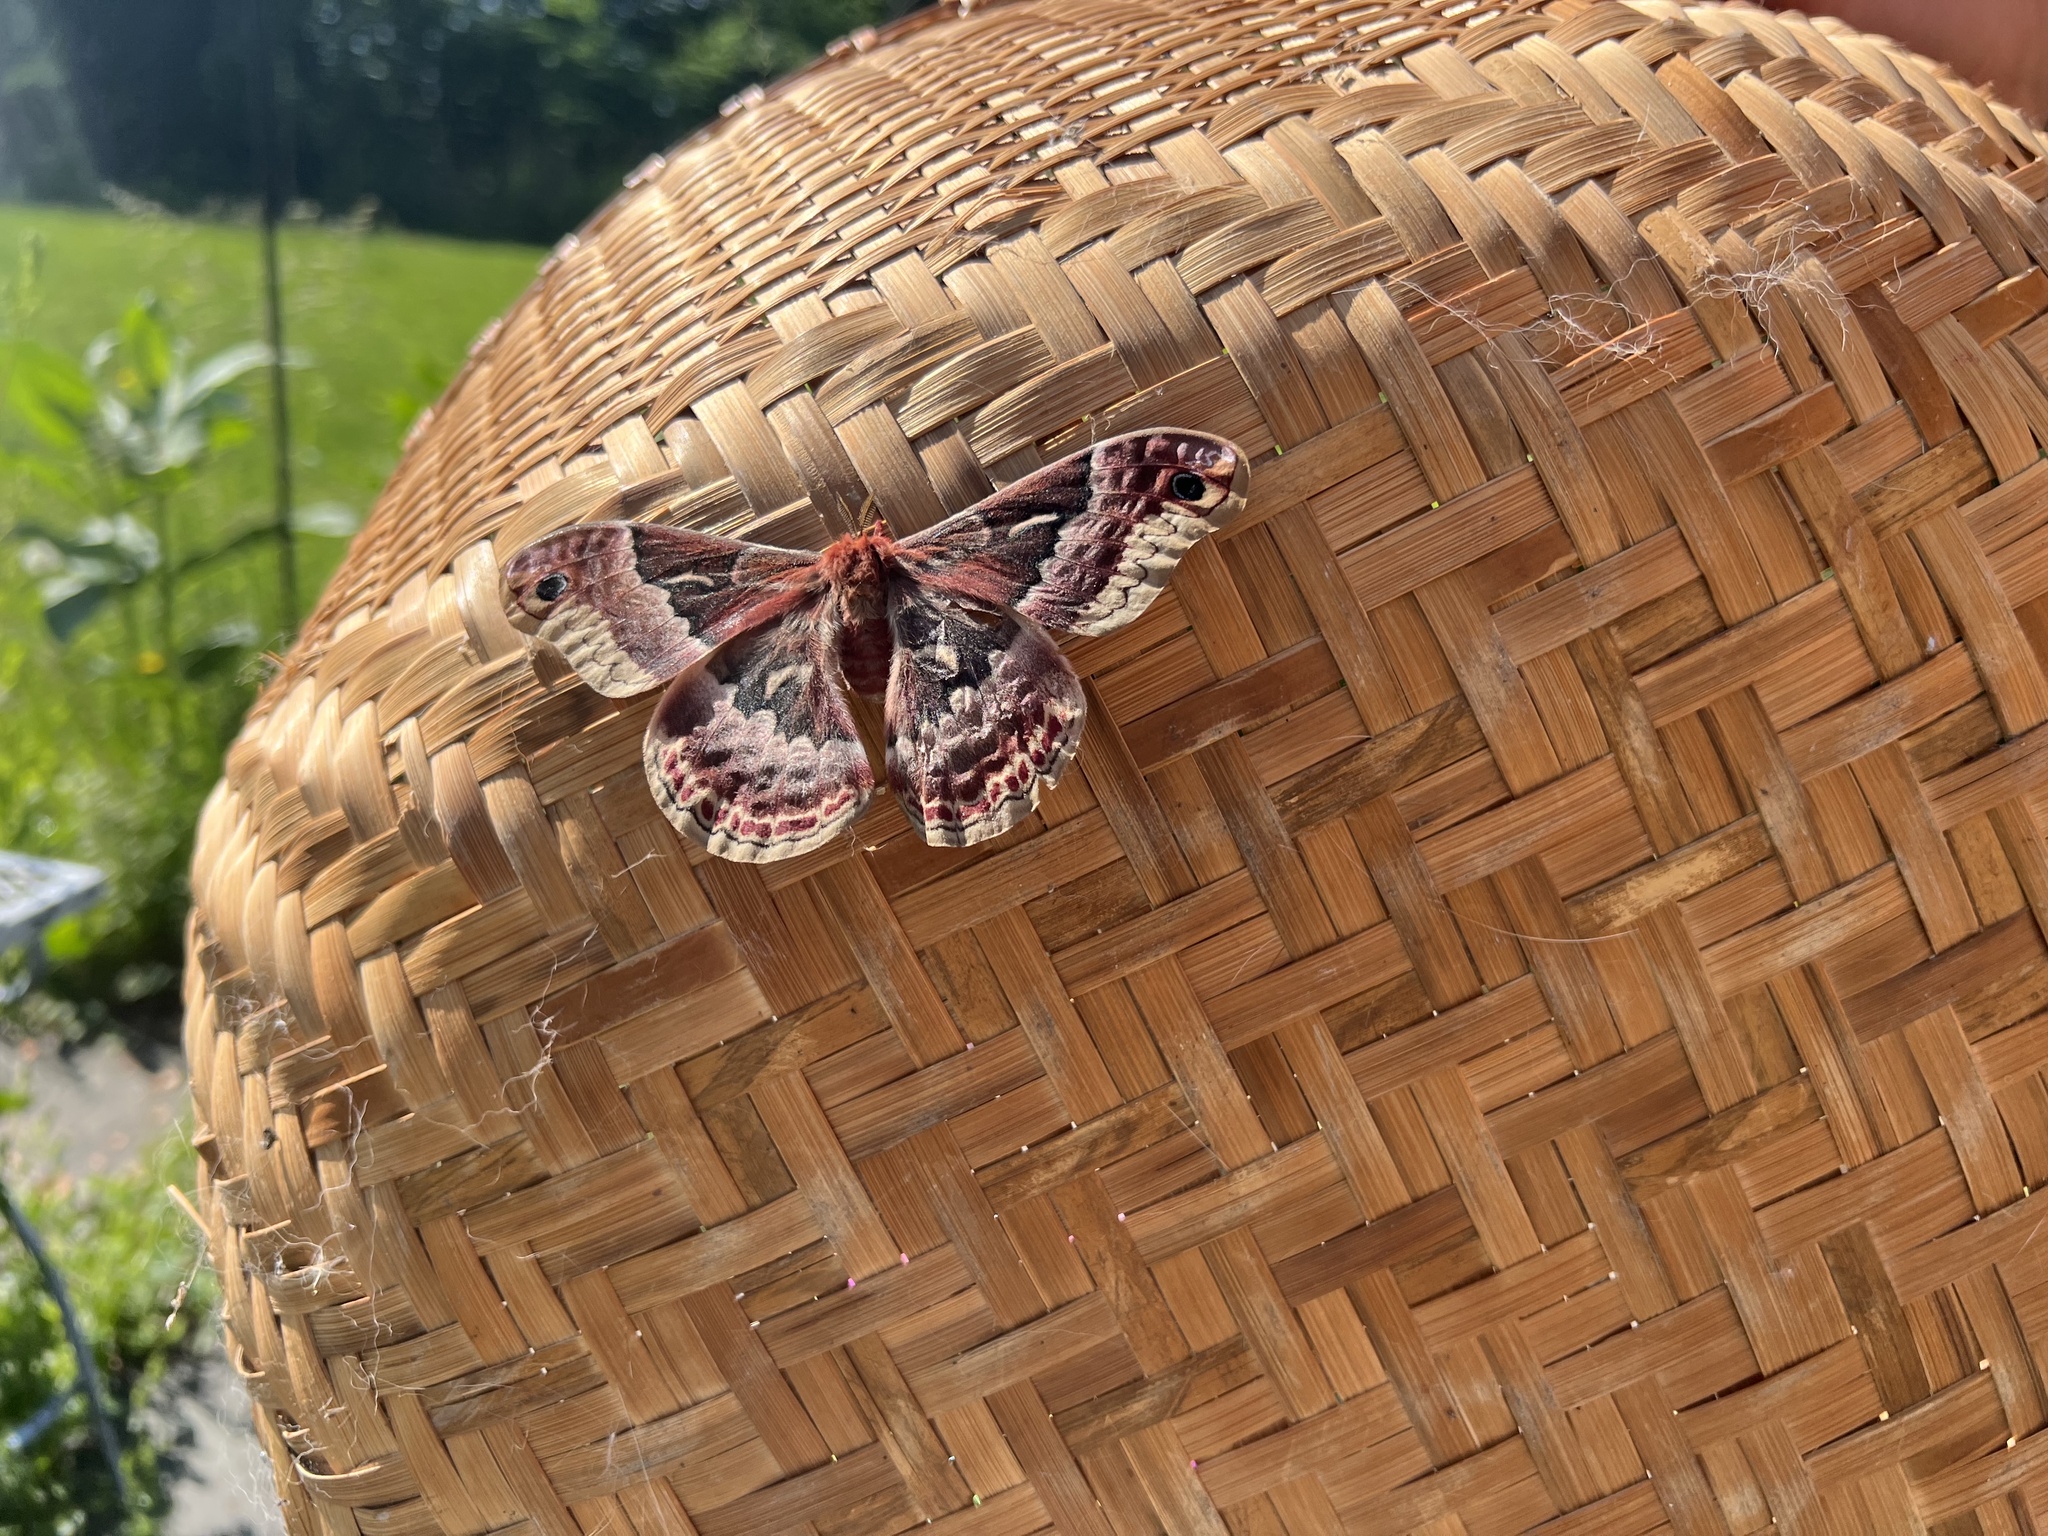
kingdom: Animalia
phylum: Arthropoda
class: Insecta
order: Lepidoptera
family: Saturniidae
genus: Callosamia
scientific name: Callosamia promethea
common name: Promethea silkmoth
